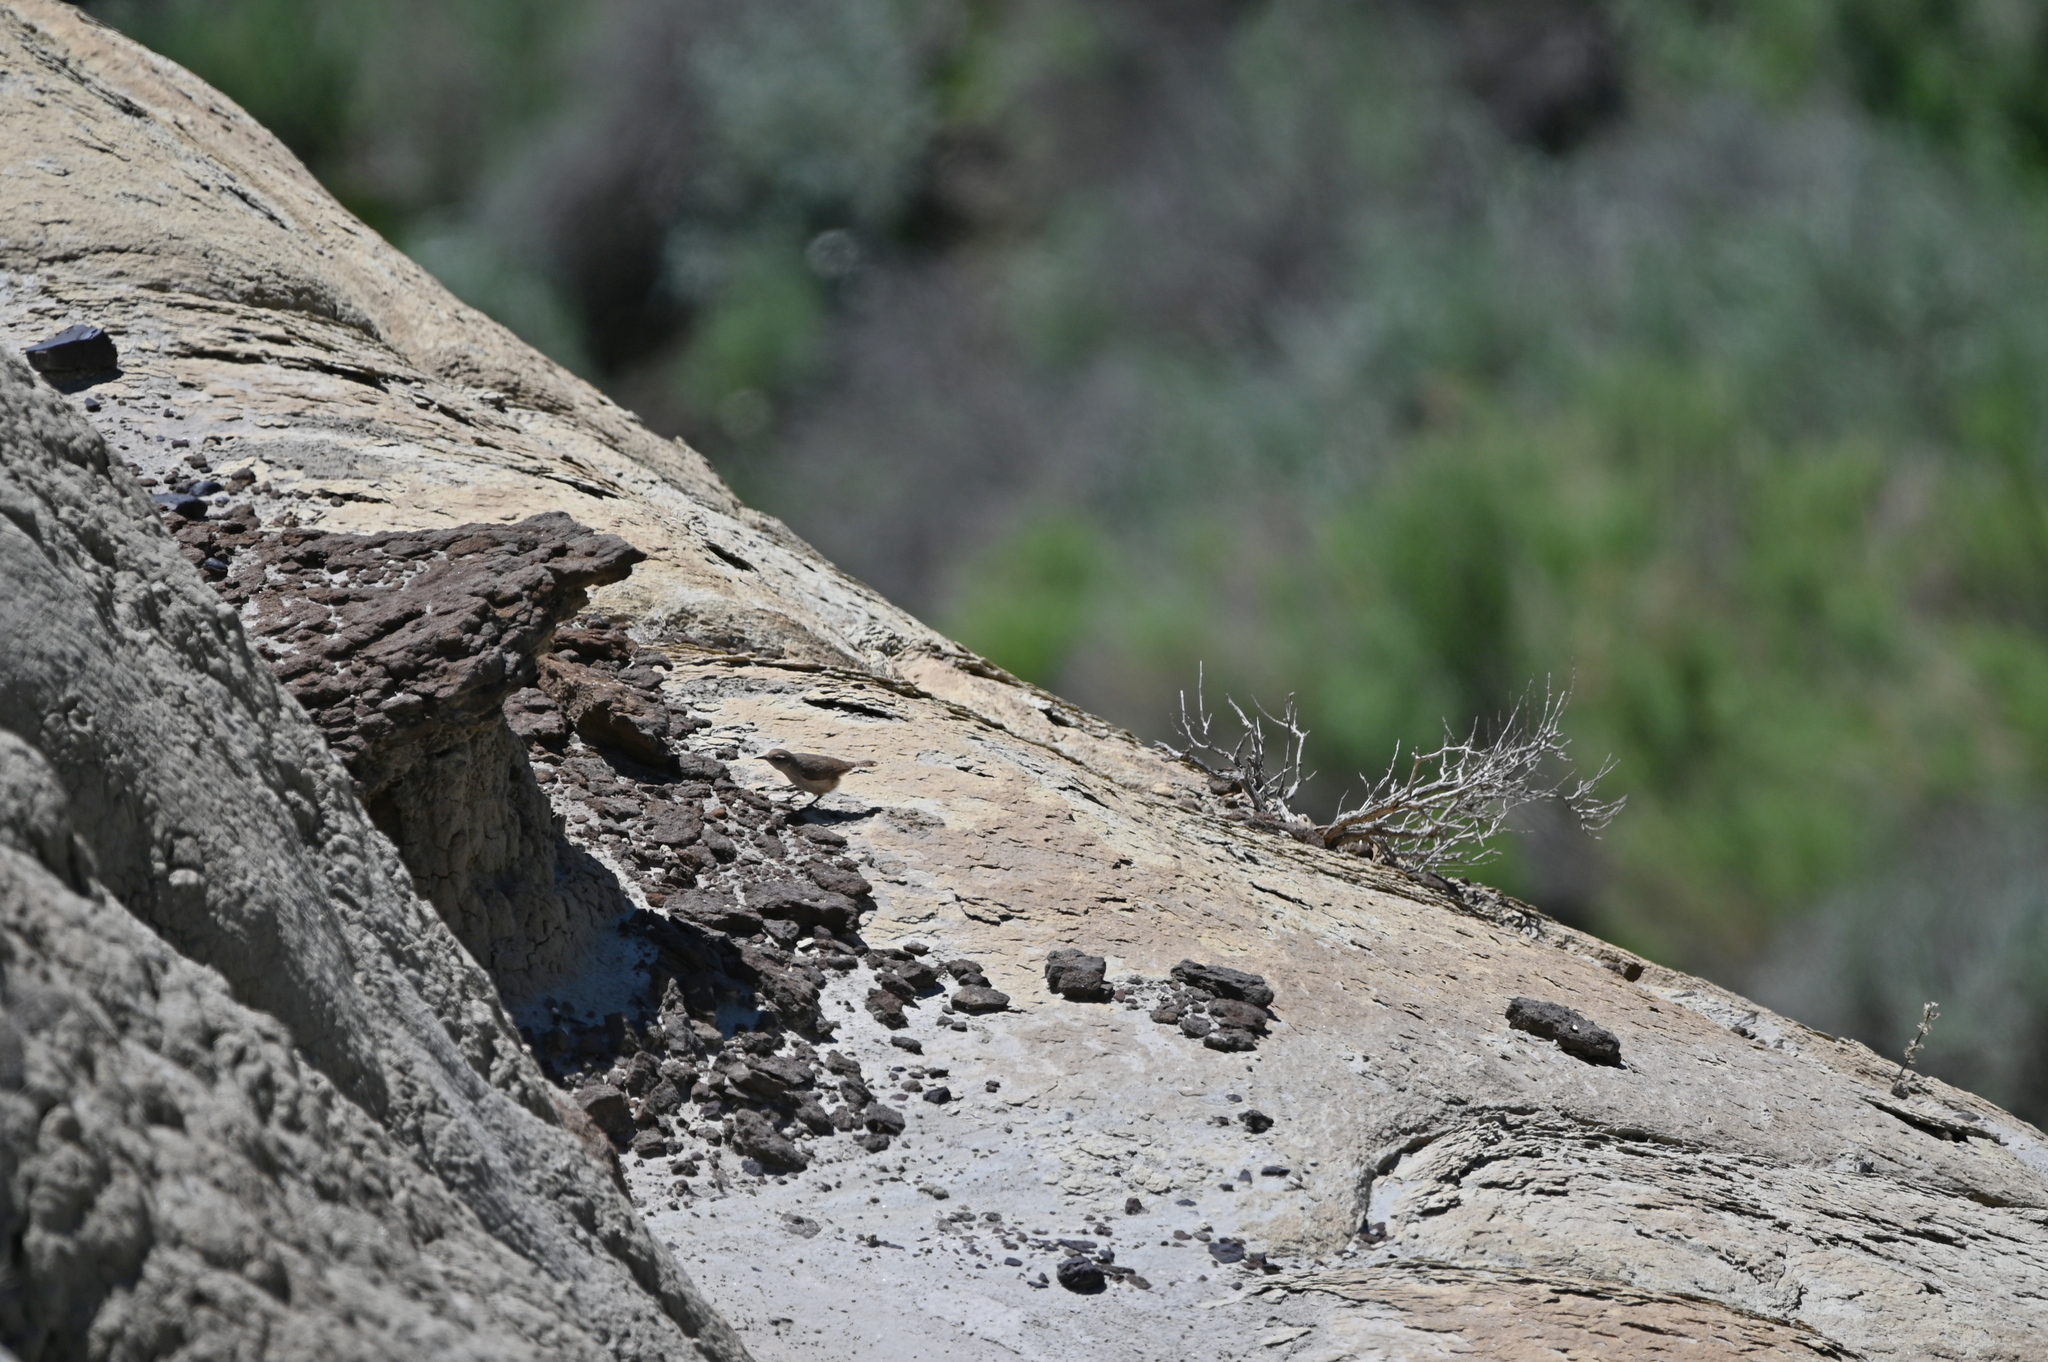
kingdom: Animalia
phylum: Chordata
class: Aves
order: Passeriformes
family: Troglodytidae
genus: Salpinctes
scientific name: Salpinctes obsoletus
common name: Rock wren
